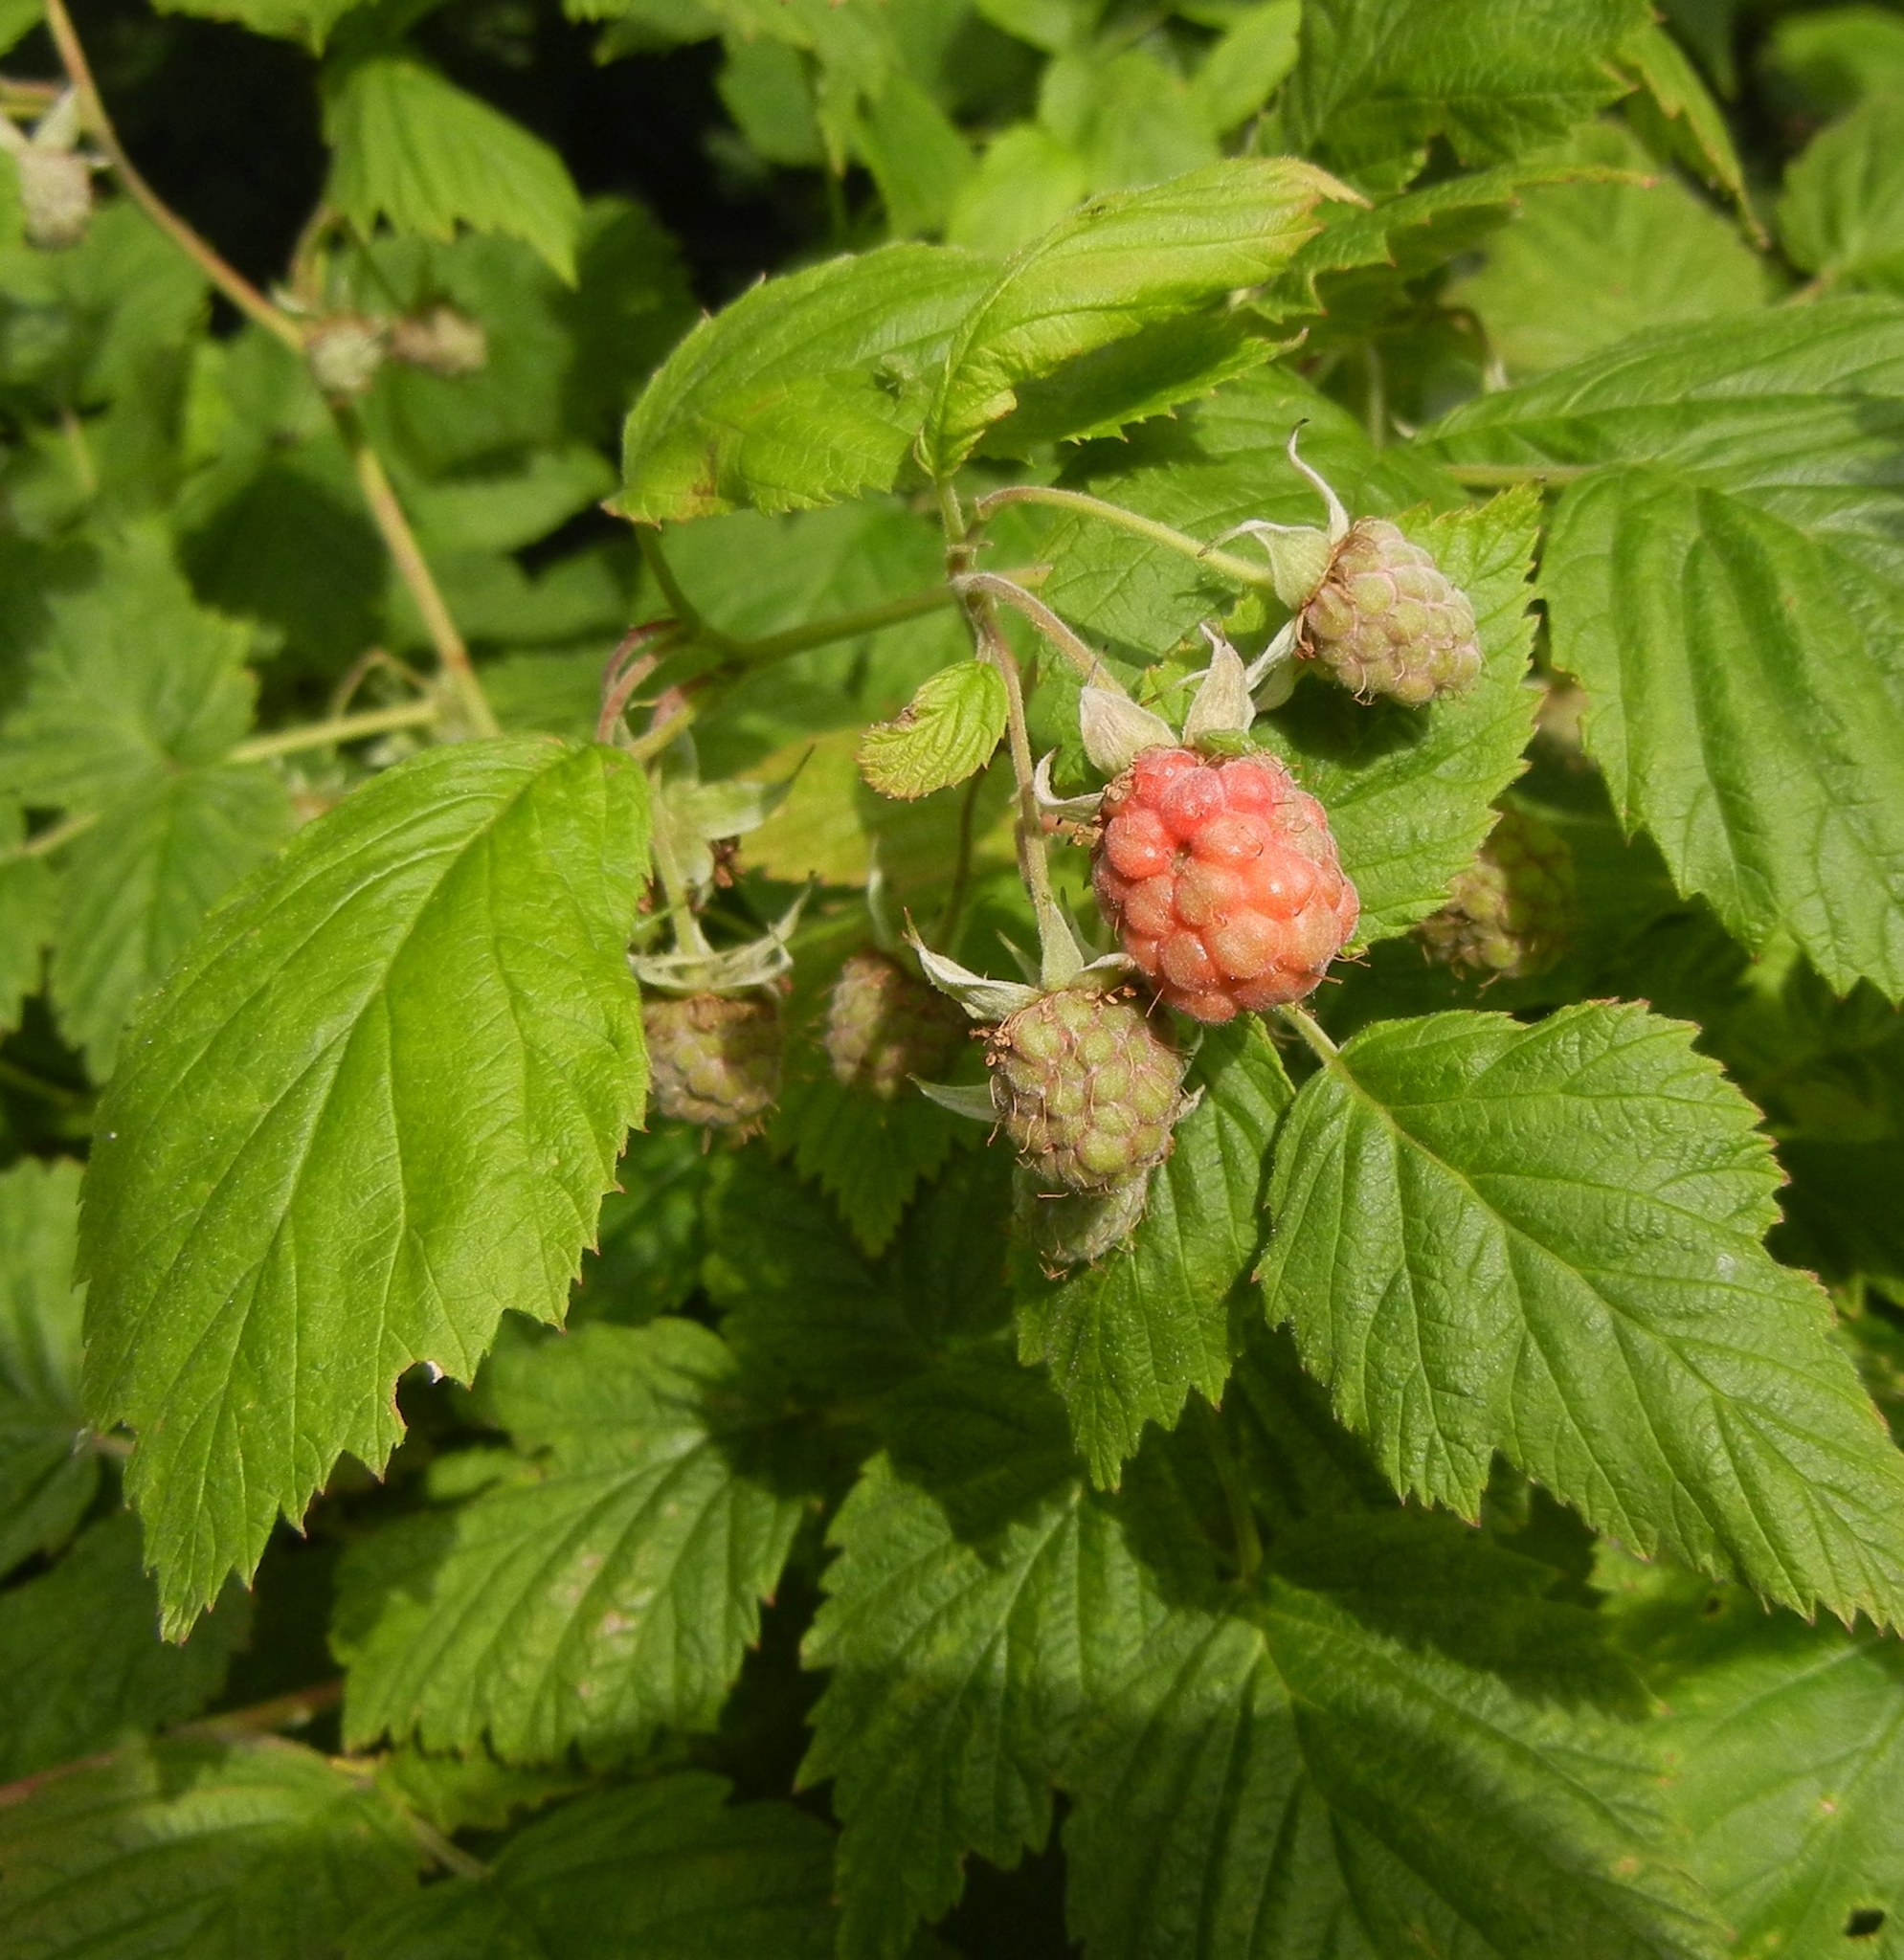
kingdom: Plantae
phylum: Tracheophyta
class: Magnoliopsida
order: Rosales
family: Rosaceae
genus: Rubus
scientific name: Rubus idaeus
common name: Raspberry
